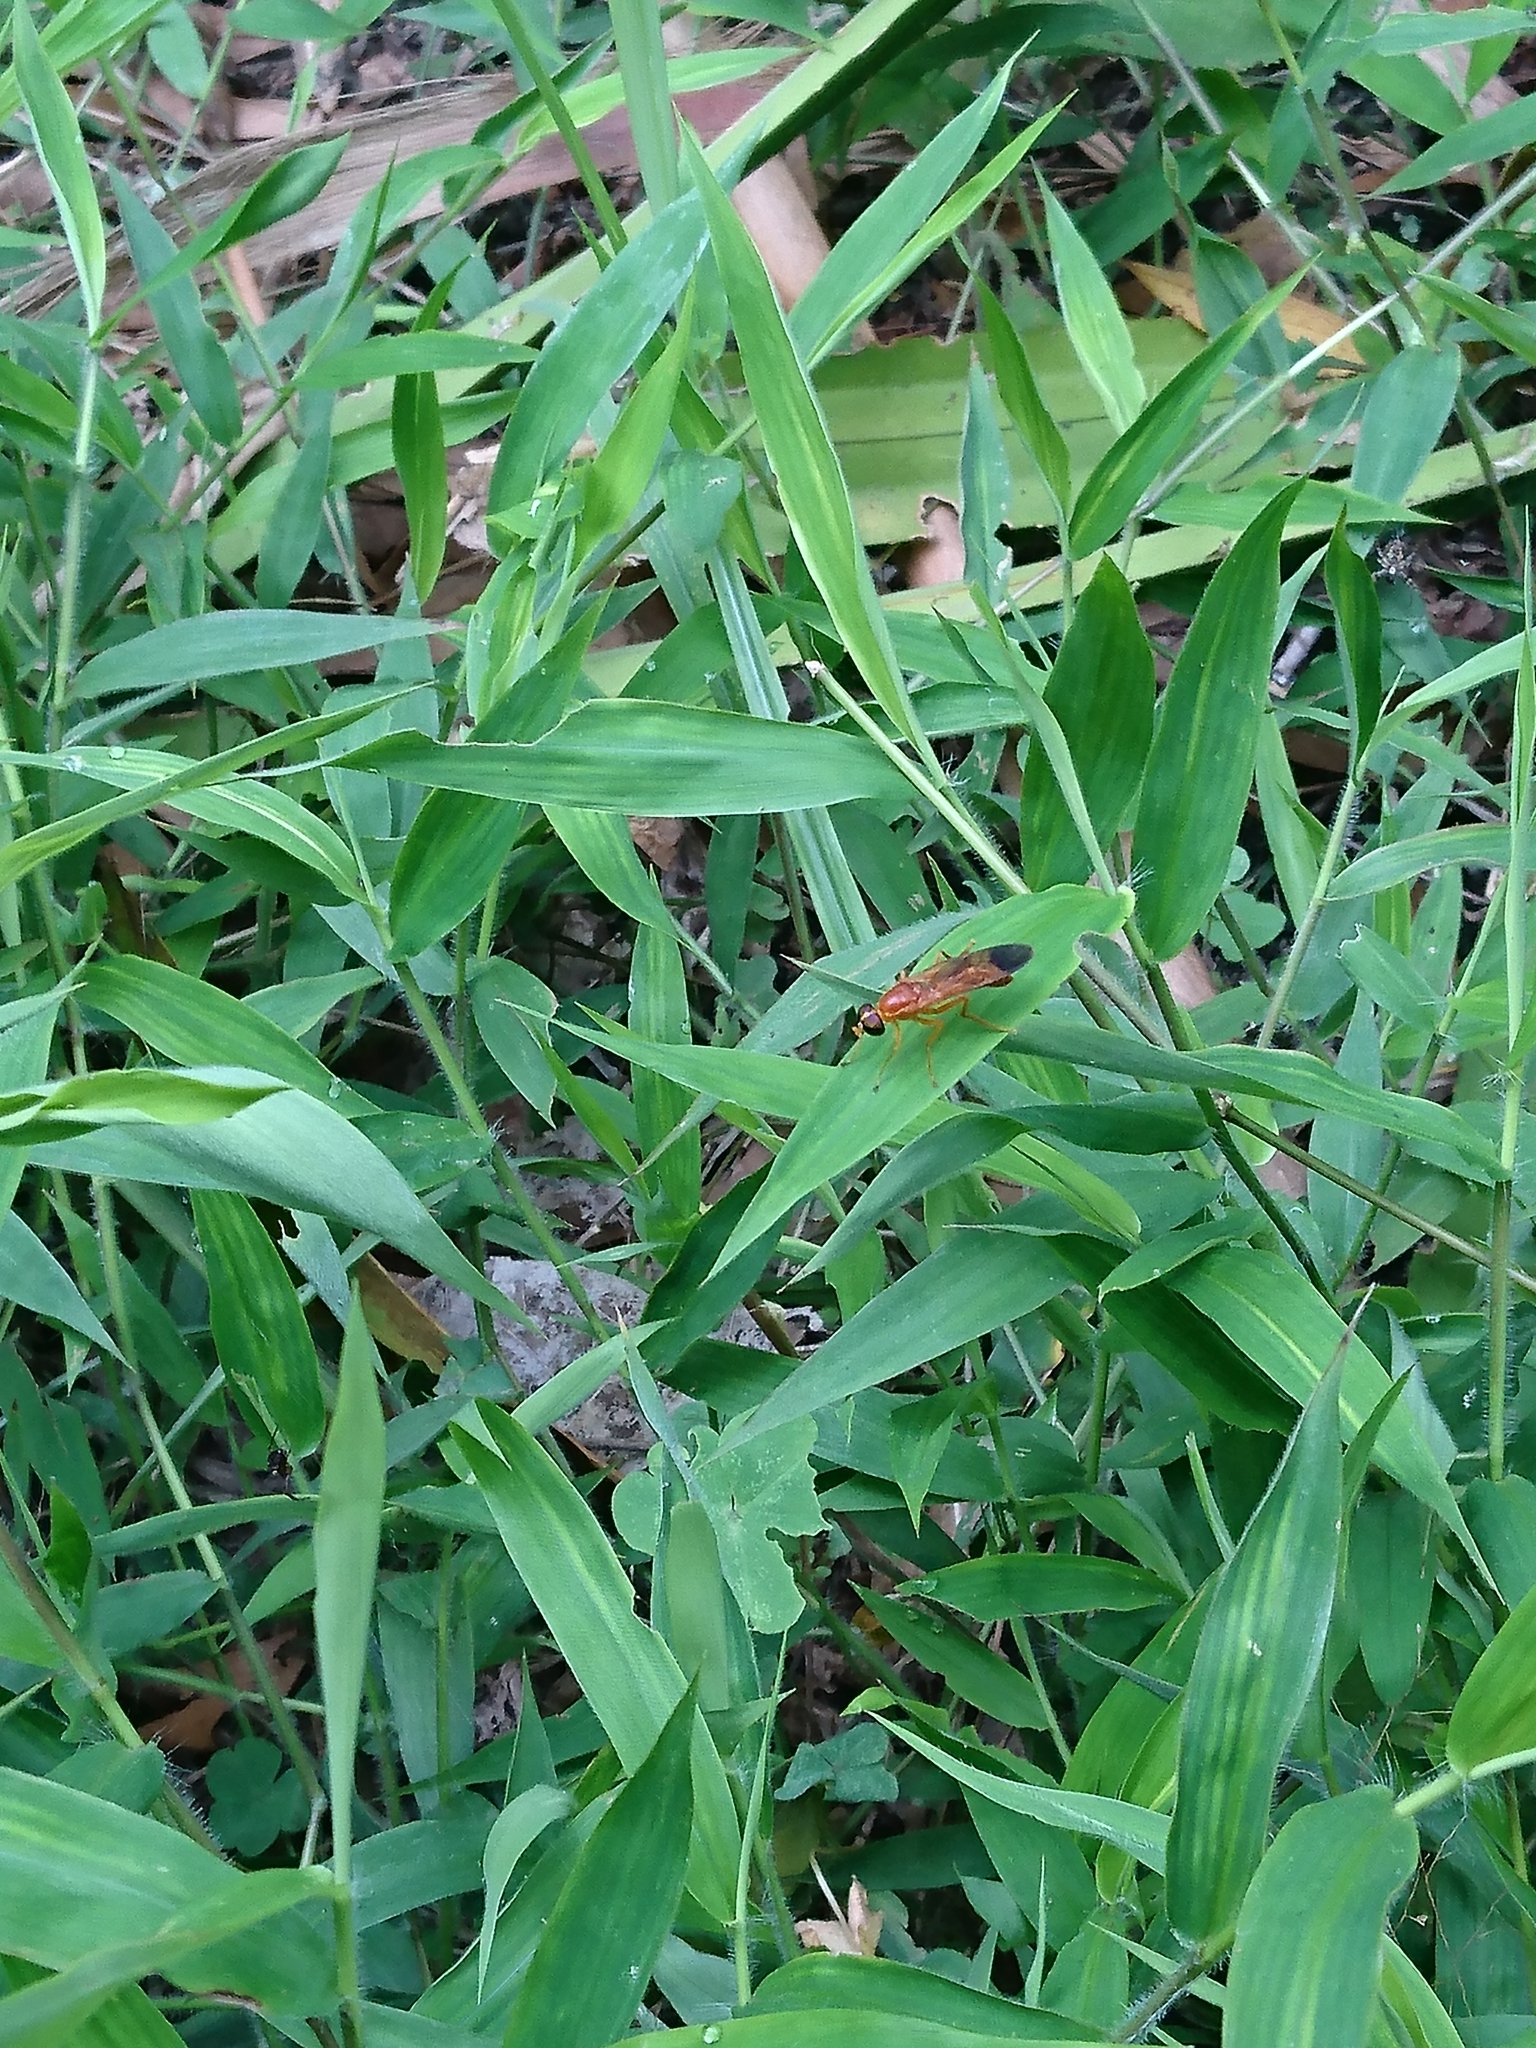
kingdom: Animalia
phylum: Arthropoda
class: Insecta
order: Diptera
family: Stratiomyidae
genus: Ptecticus
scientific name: Ptecticus aurifer
